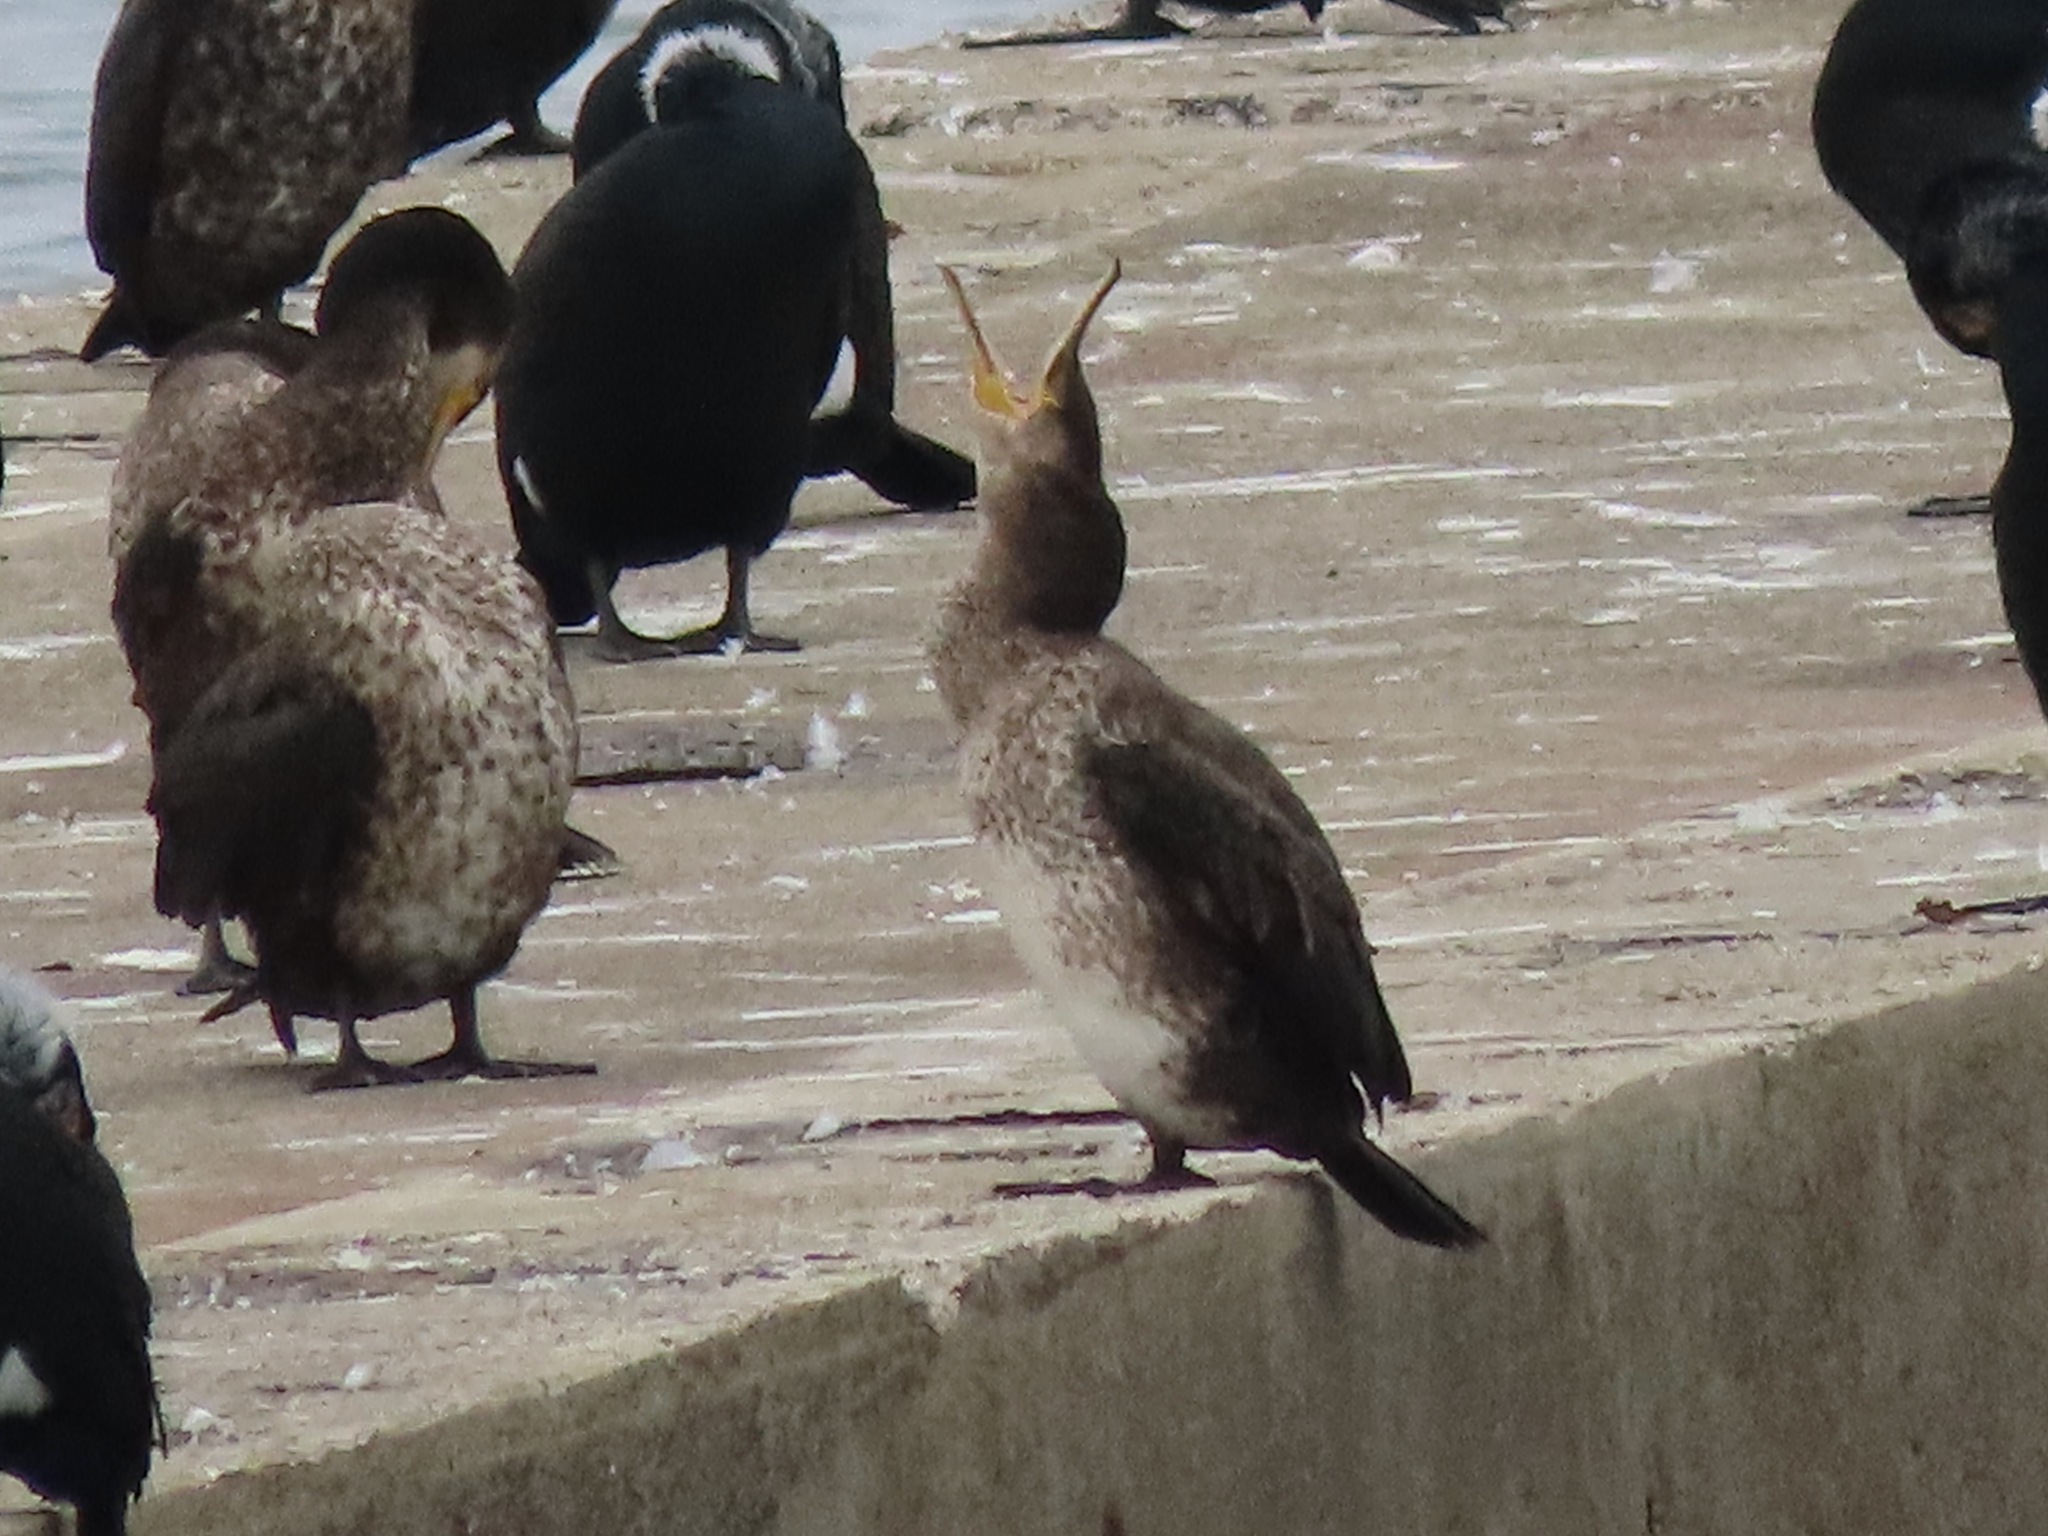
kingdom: Animalia
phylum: Chordata
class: Aves
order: Suliformes
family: Phalacrocoracidae
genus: Phalacrocorax
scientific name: Phalacrocorax carbo
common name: Great cormorant
